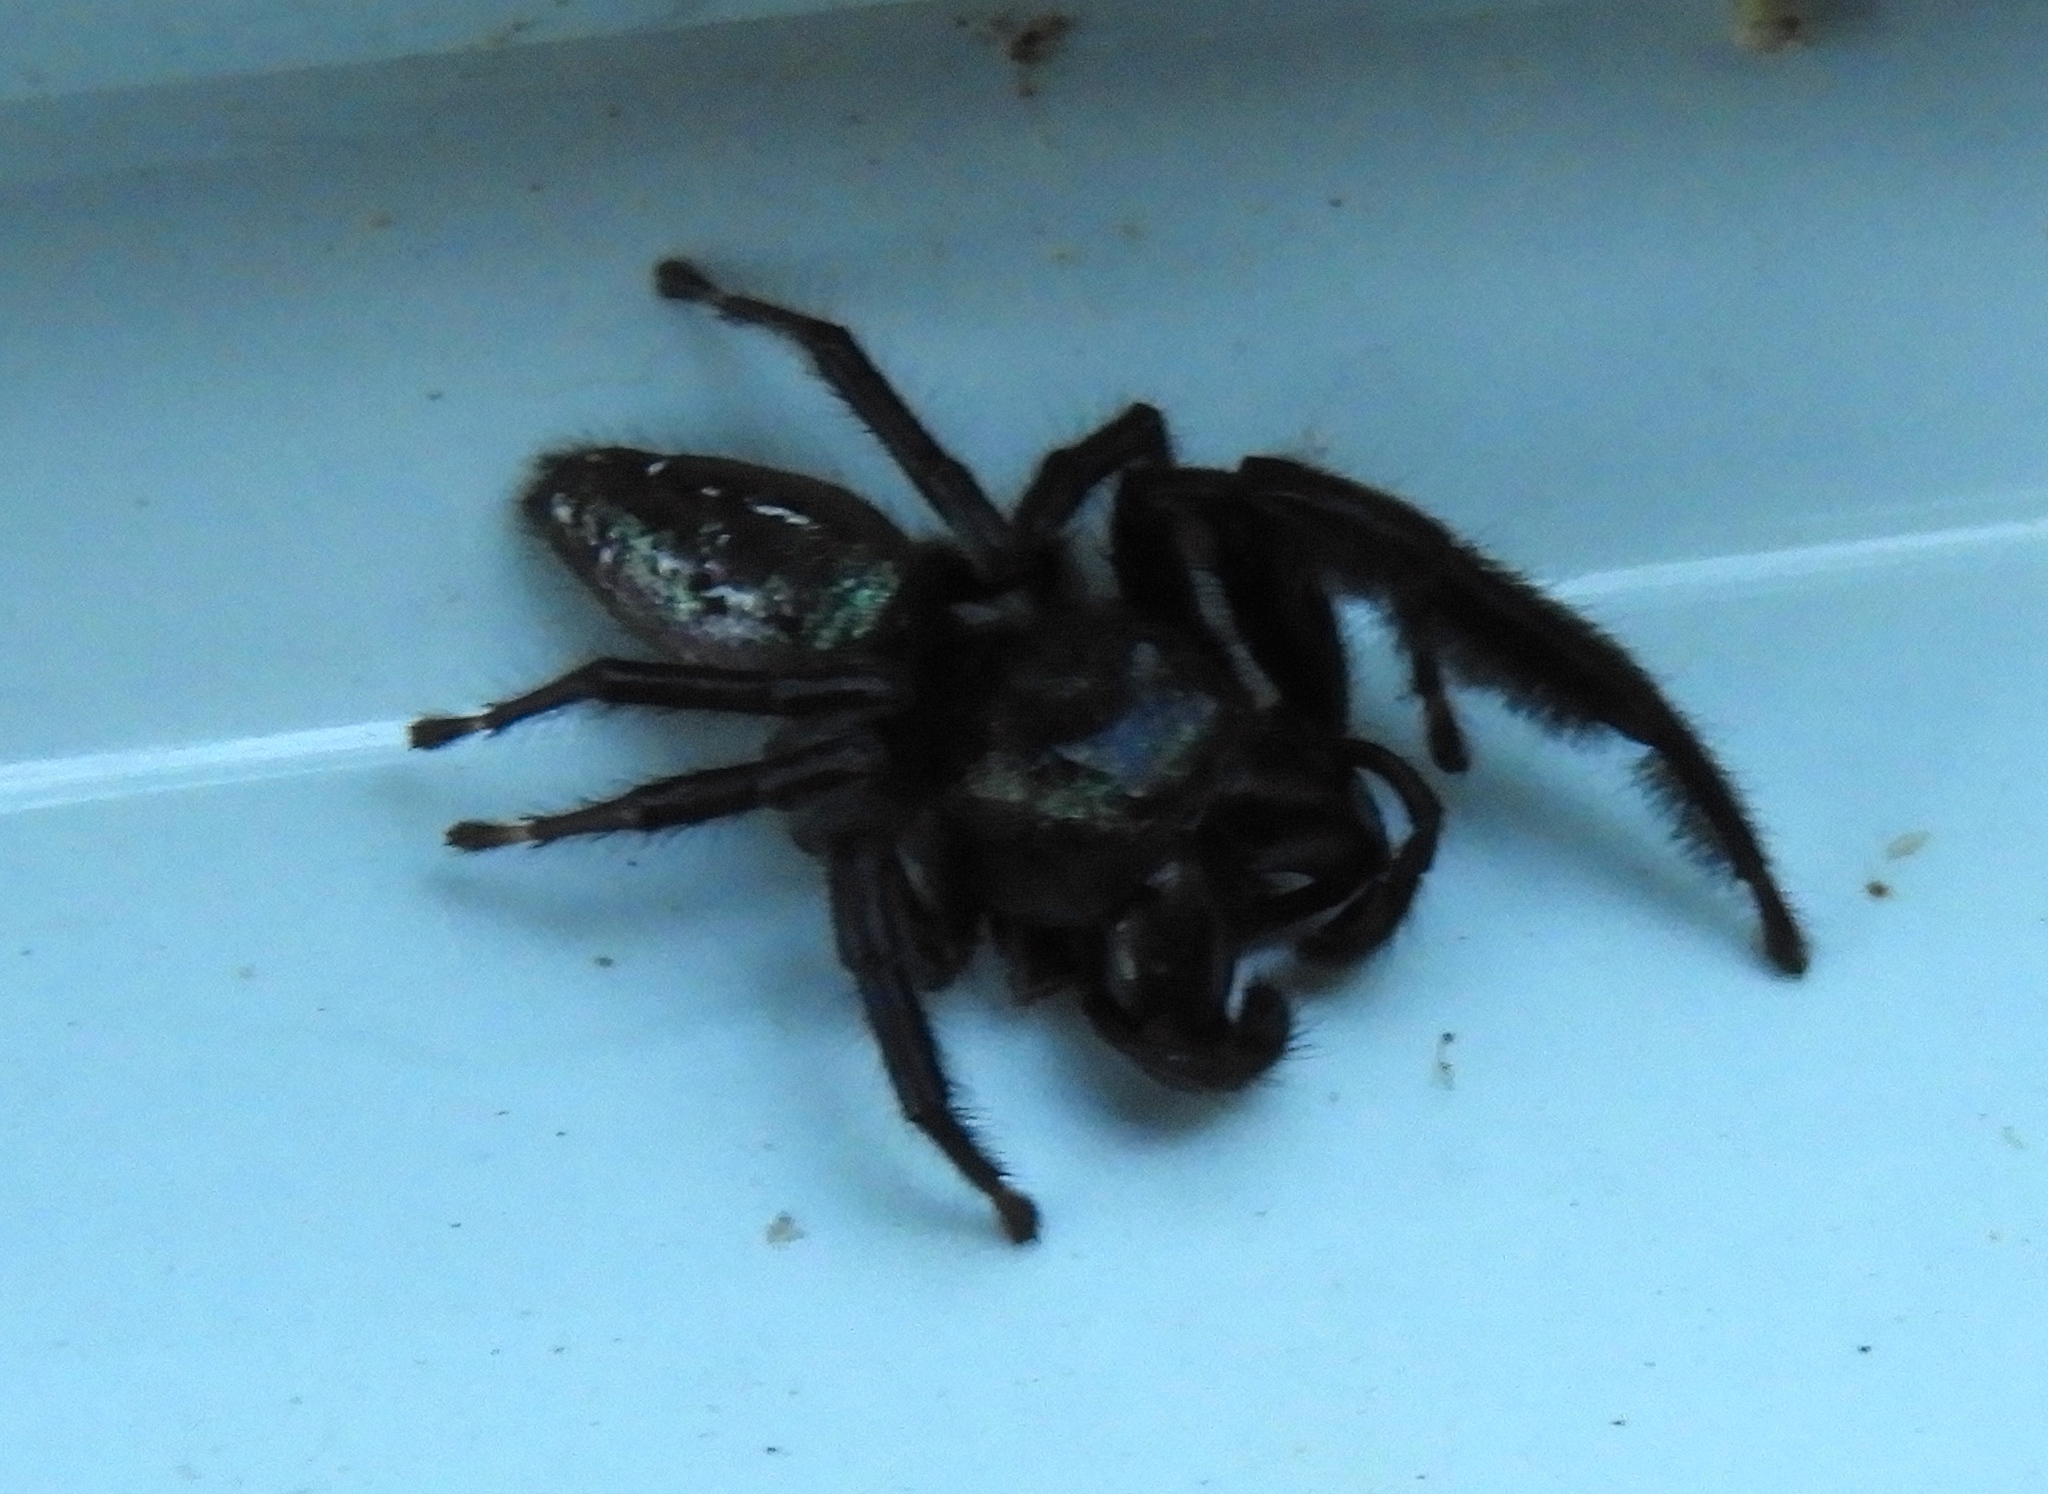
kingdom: Animalia
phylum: Arthropoda
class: Arachnida
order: Araneae
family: Salticidae
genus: Paraphidippus
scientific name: Paraphidippus fartilis
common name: Jumping spiders
